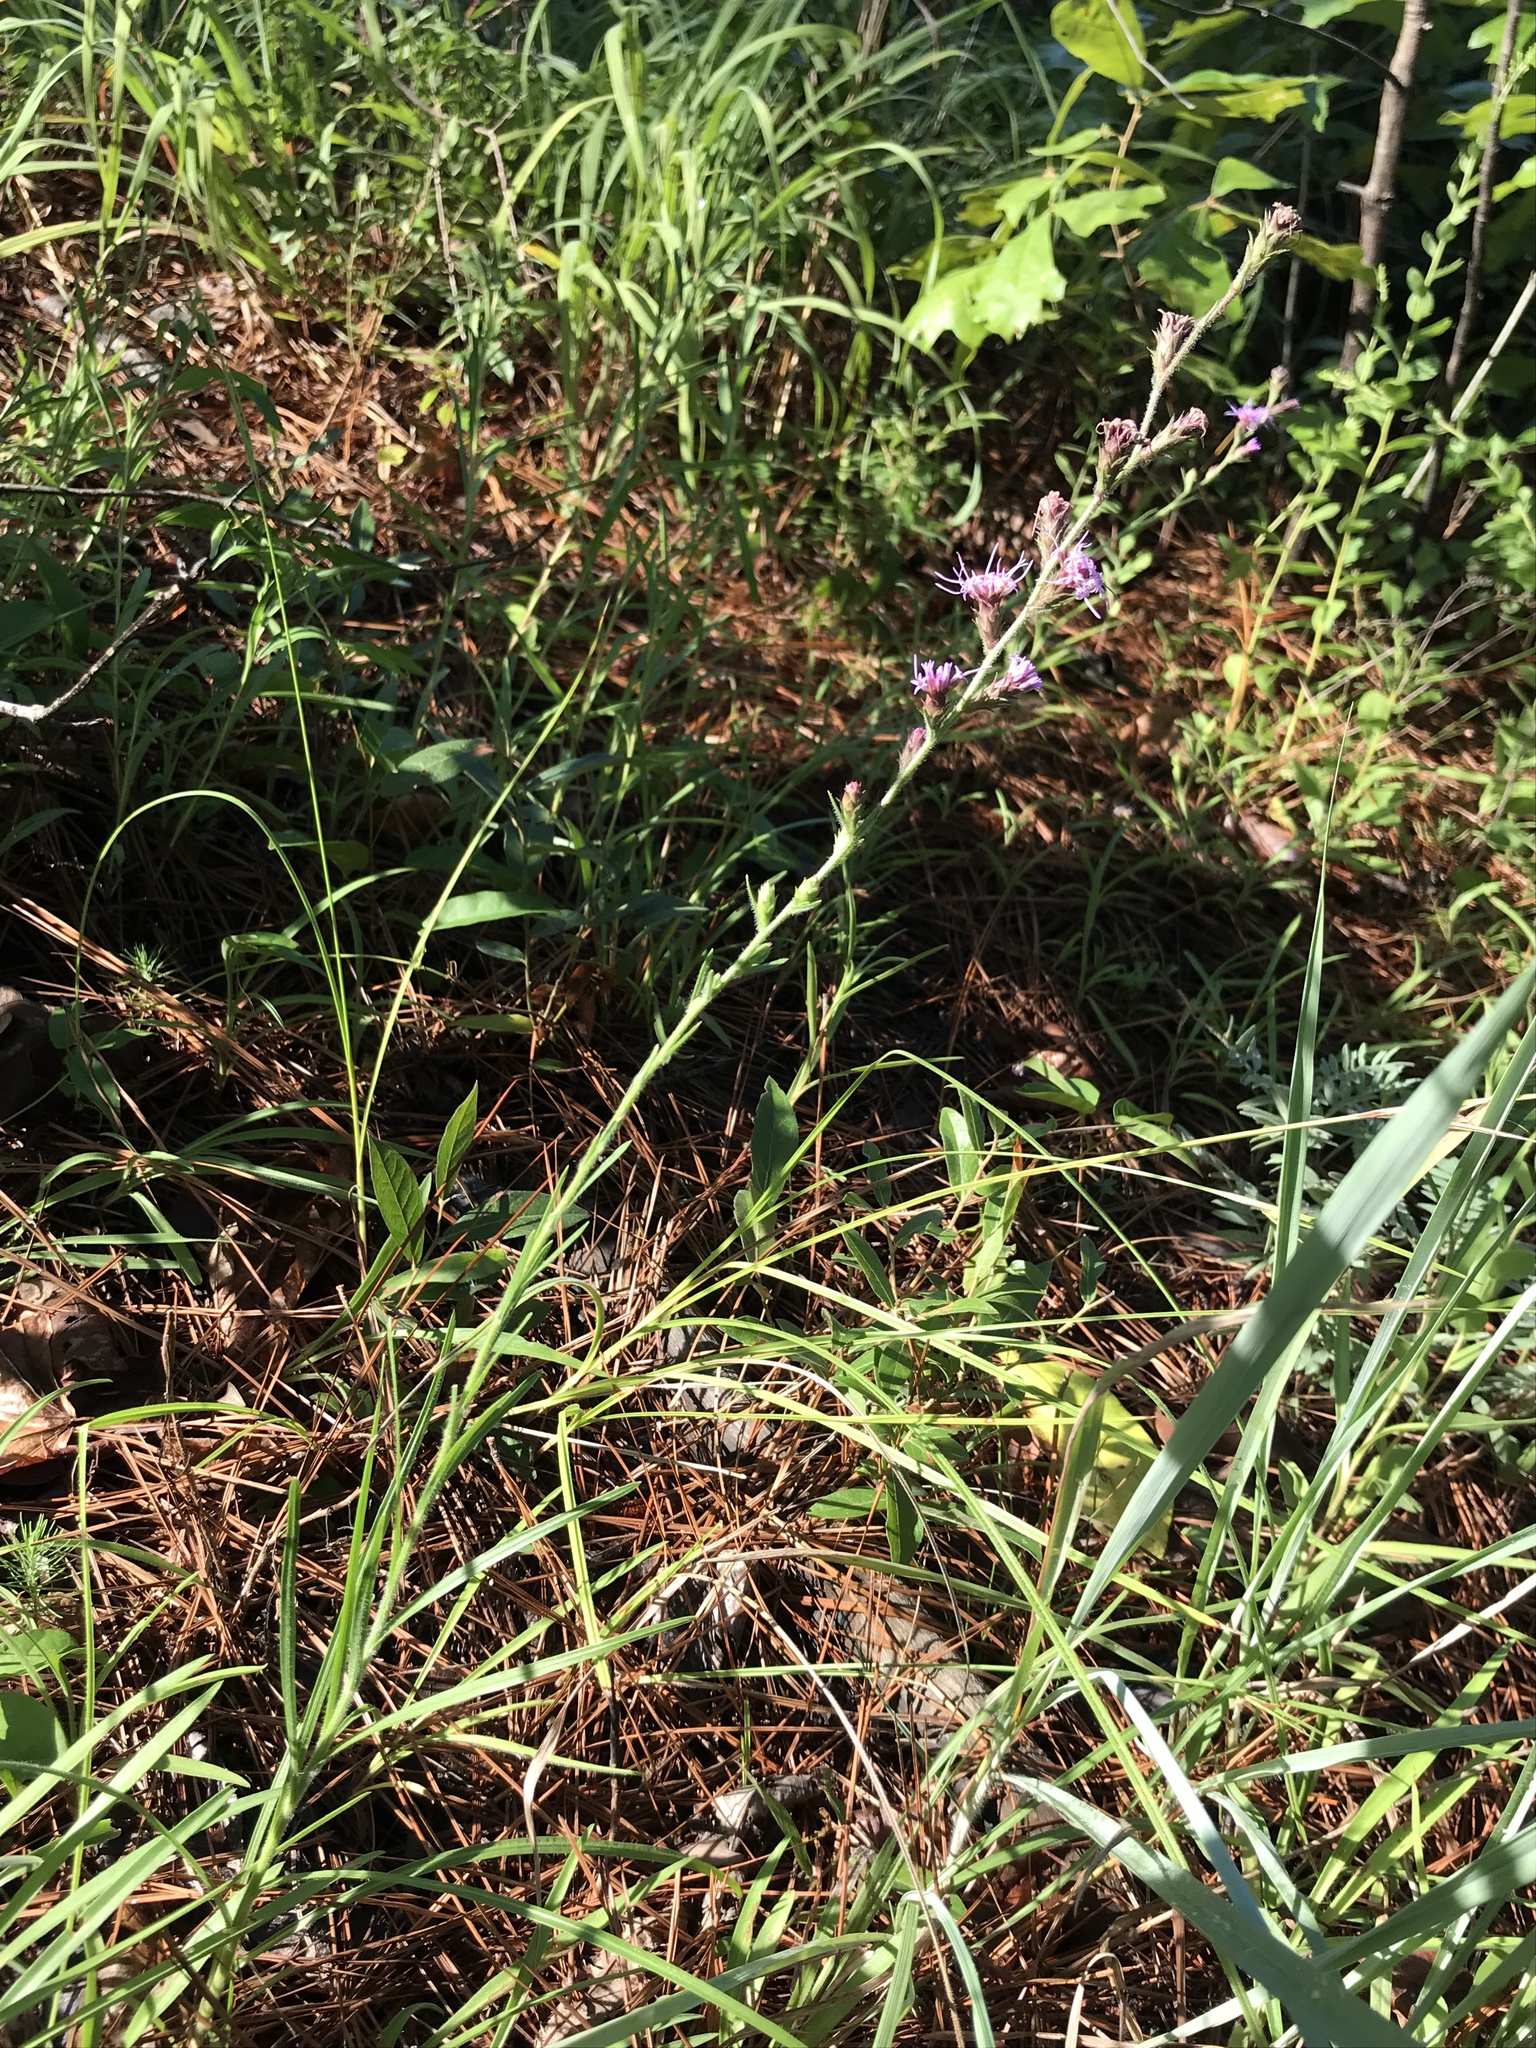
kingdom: Plantae
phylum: Tracheophyta
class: Magnoliopsida
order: Asterales
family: Asteraceae
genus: Liatris
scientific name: Liatris tenuis
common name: Shinner's gayfeather
